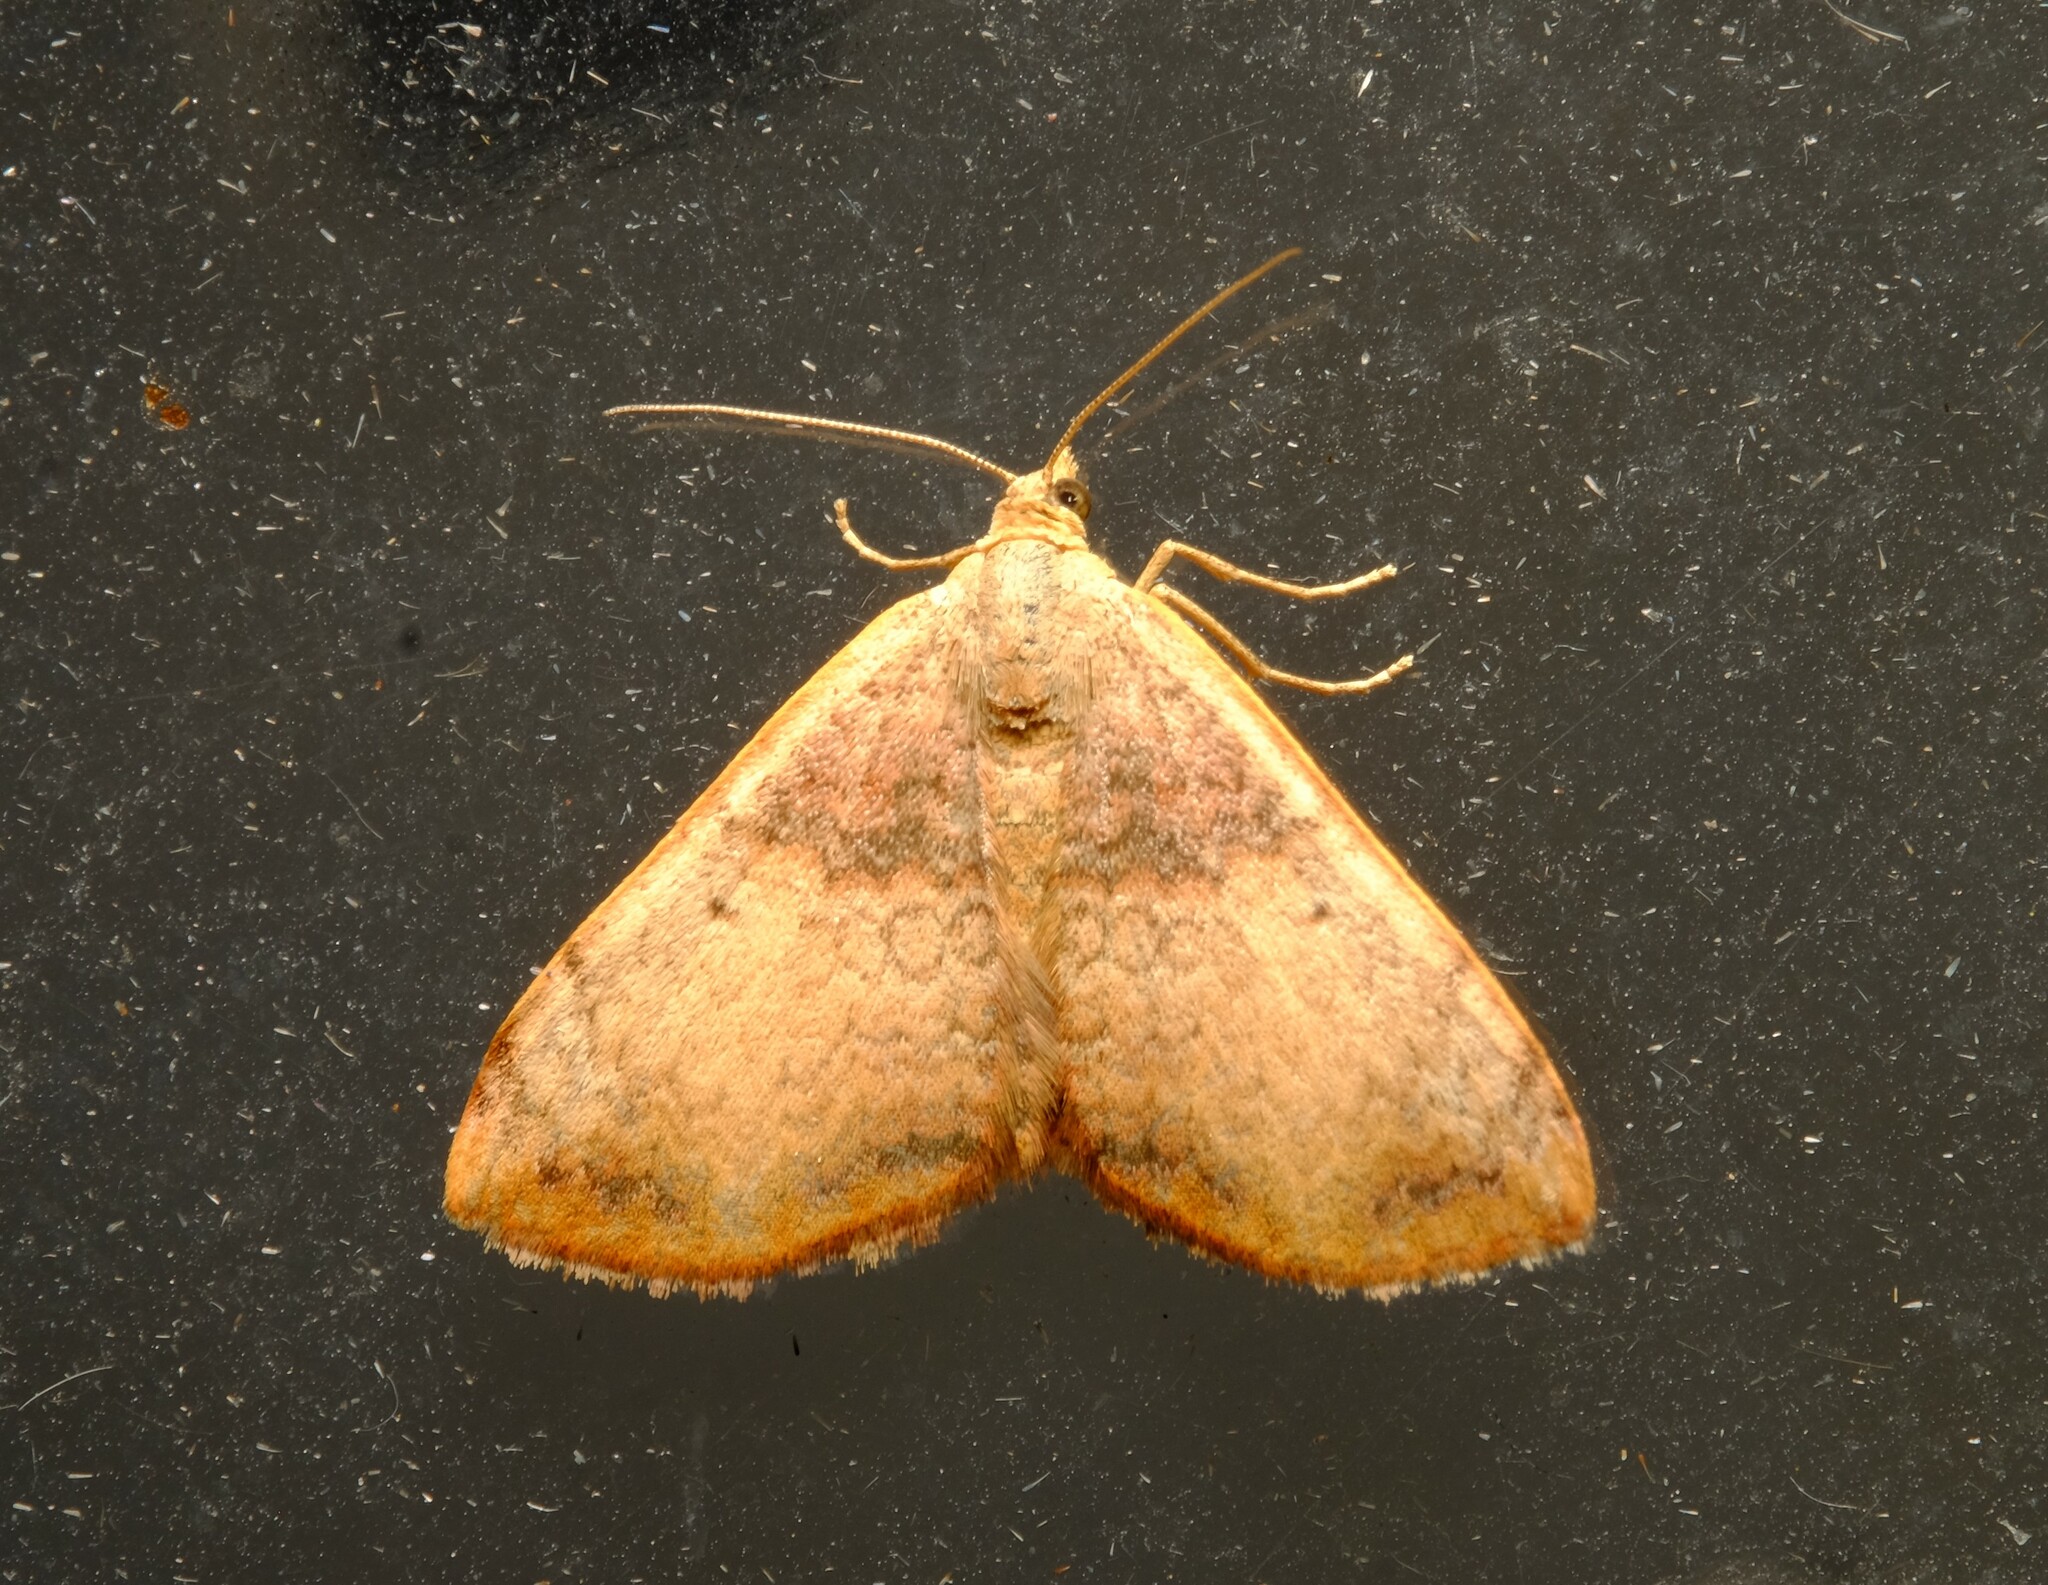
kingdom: Animalia
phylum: Arthropoda
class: Insecta
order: Lepidoptera
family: Geometridae
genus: Chrysolarentia
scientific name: Chrysolarentia mecynata
